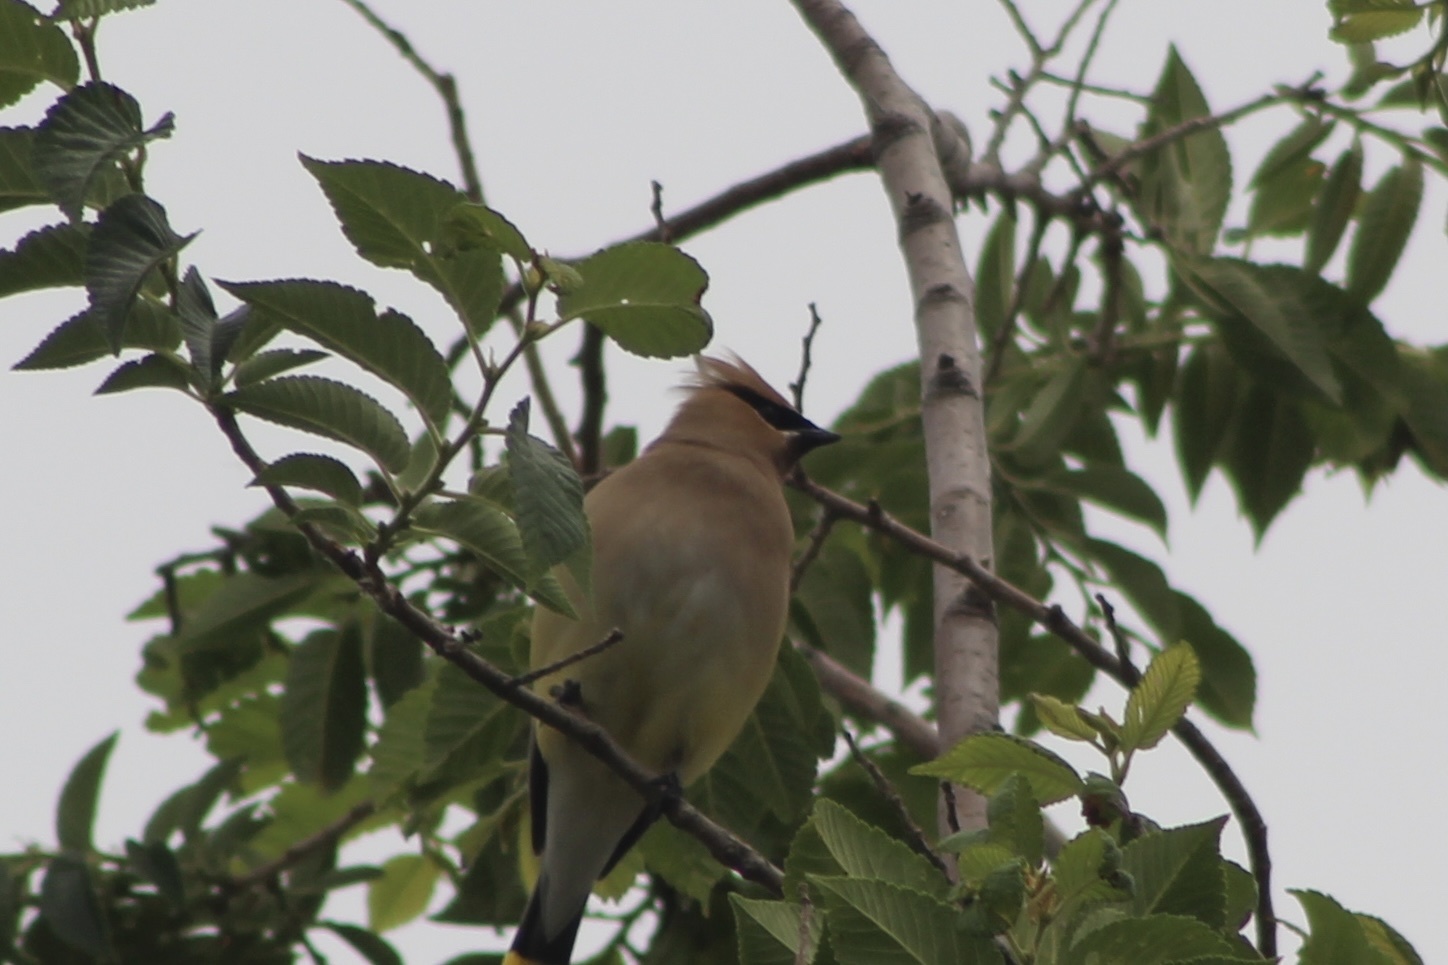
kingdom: Animalia
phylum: Chordata
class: Aves
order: Passeriformes
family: Bombycillidae
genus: Bombycilla
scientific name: Bombycilla cedrorum
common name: Cedar waxwing
